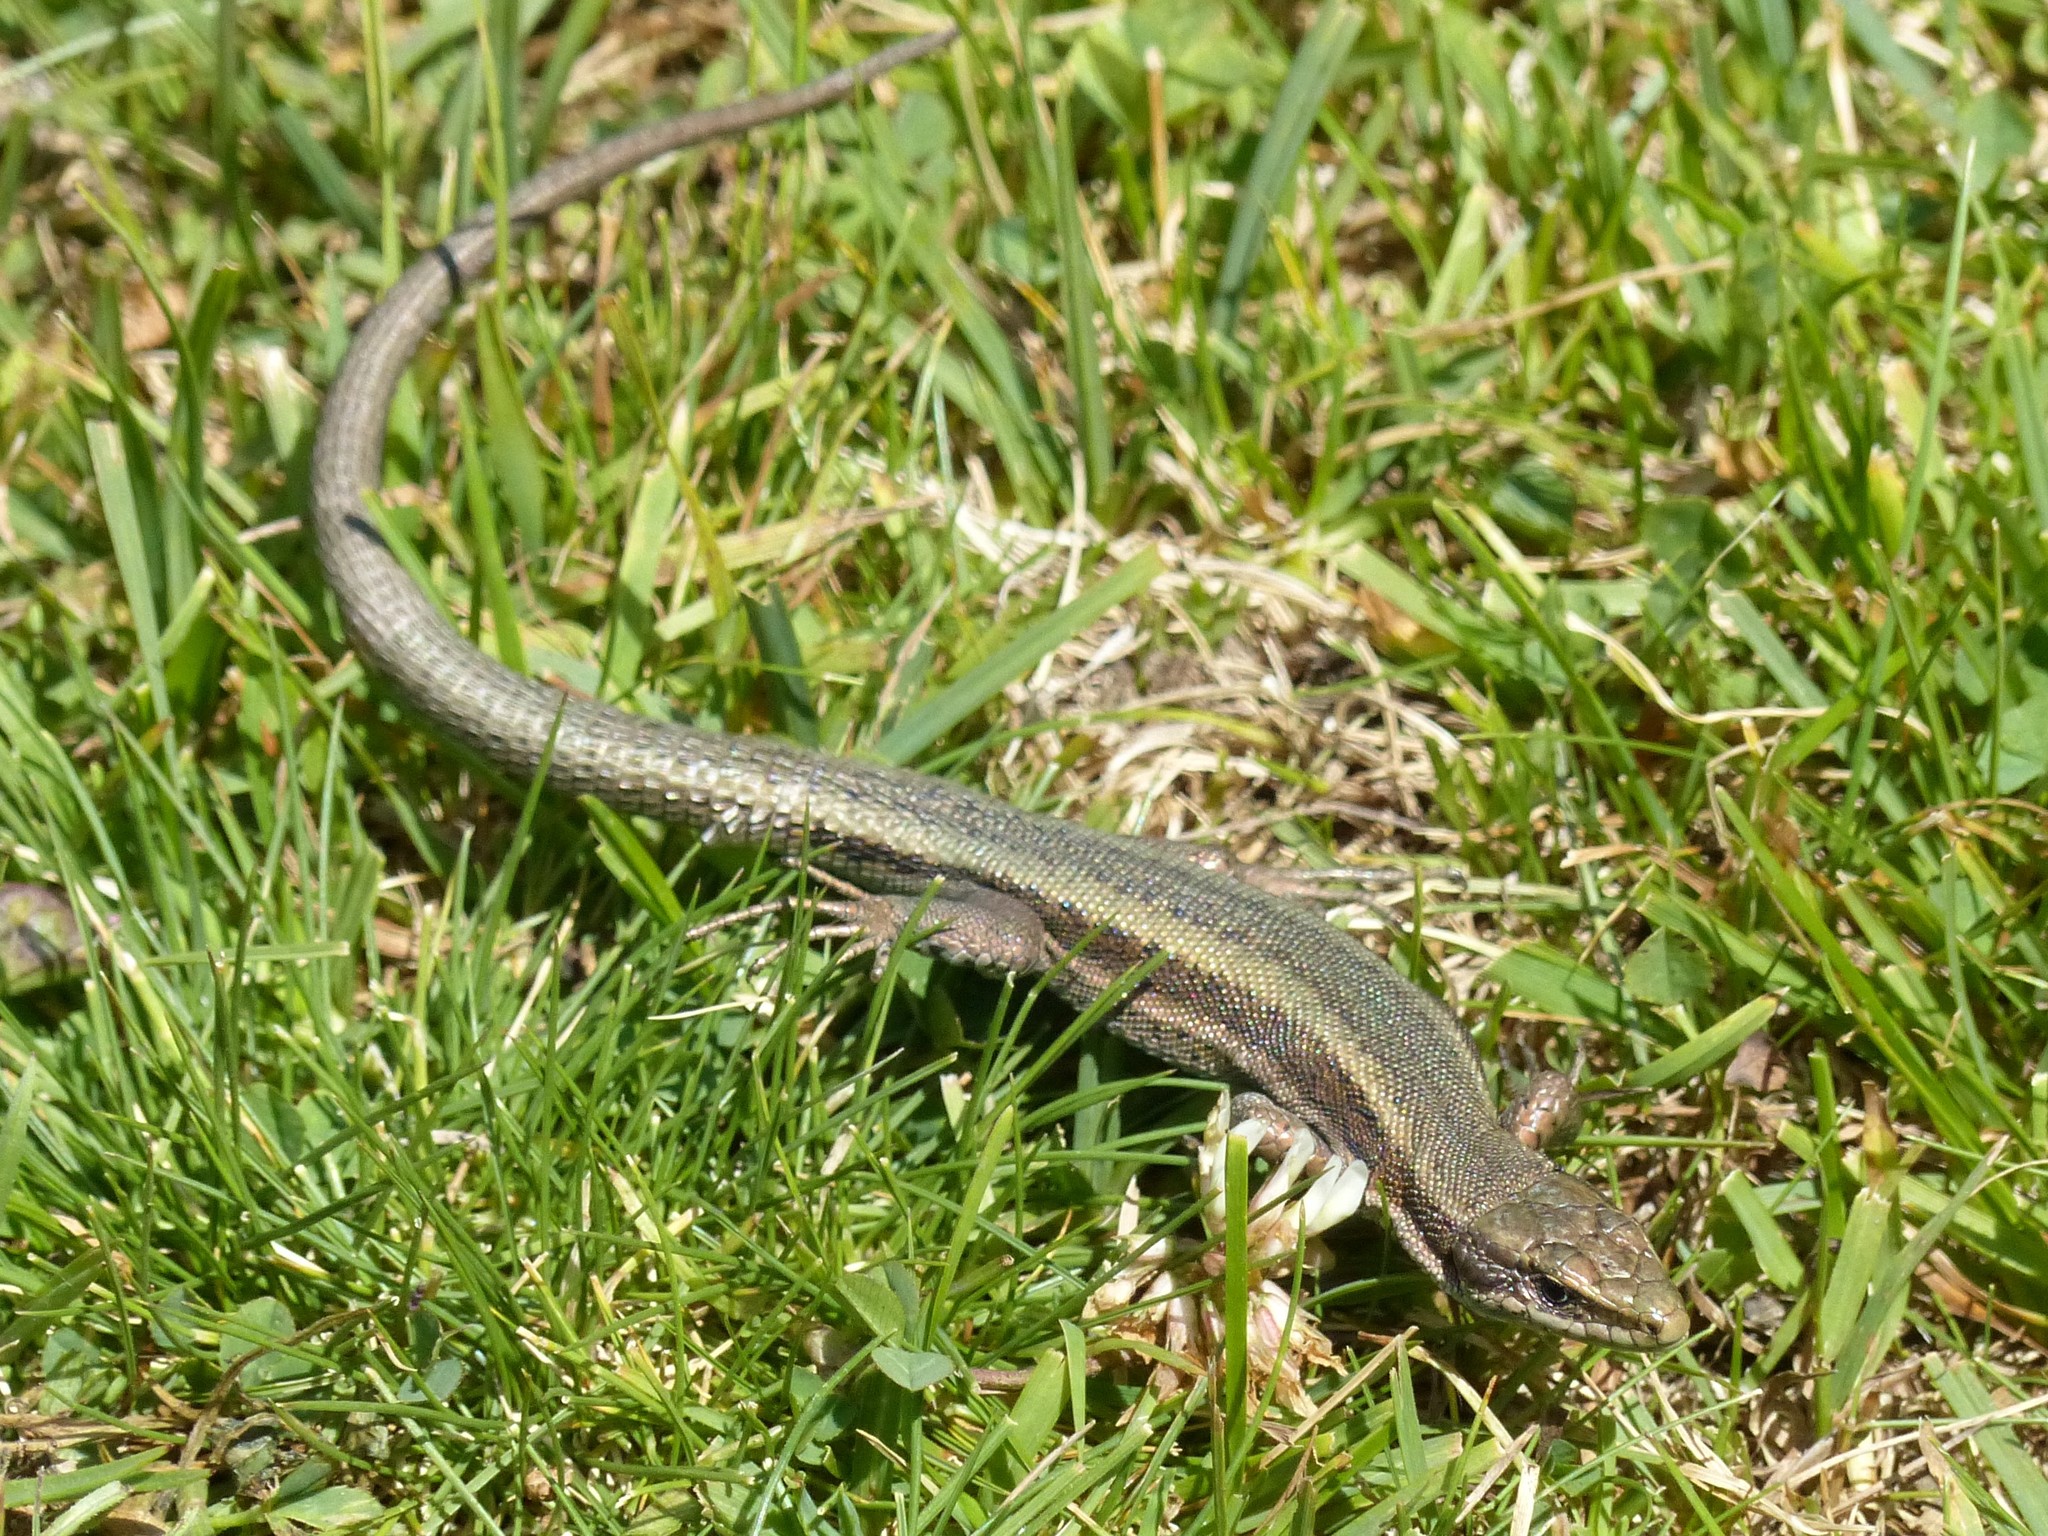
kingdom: Animalia
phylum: Chordata
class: Squamata
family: Lacertidae
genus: Iberolacerta
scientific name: Iberolacerta aranica
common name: Aran rock lizard
